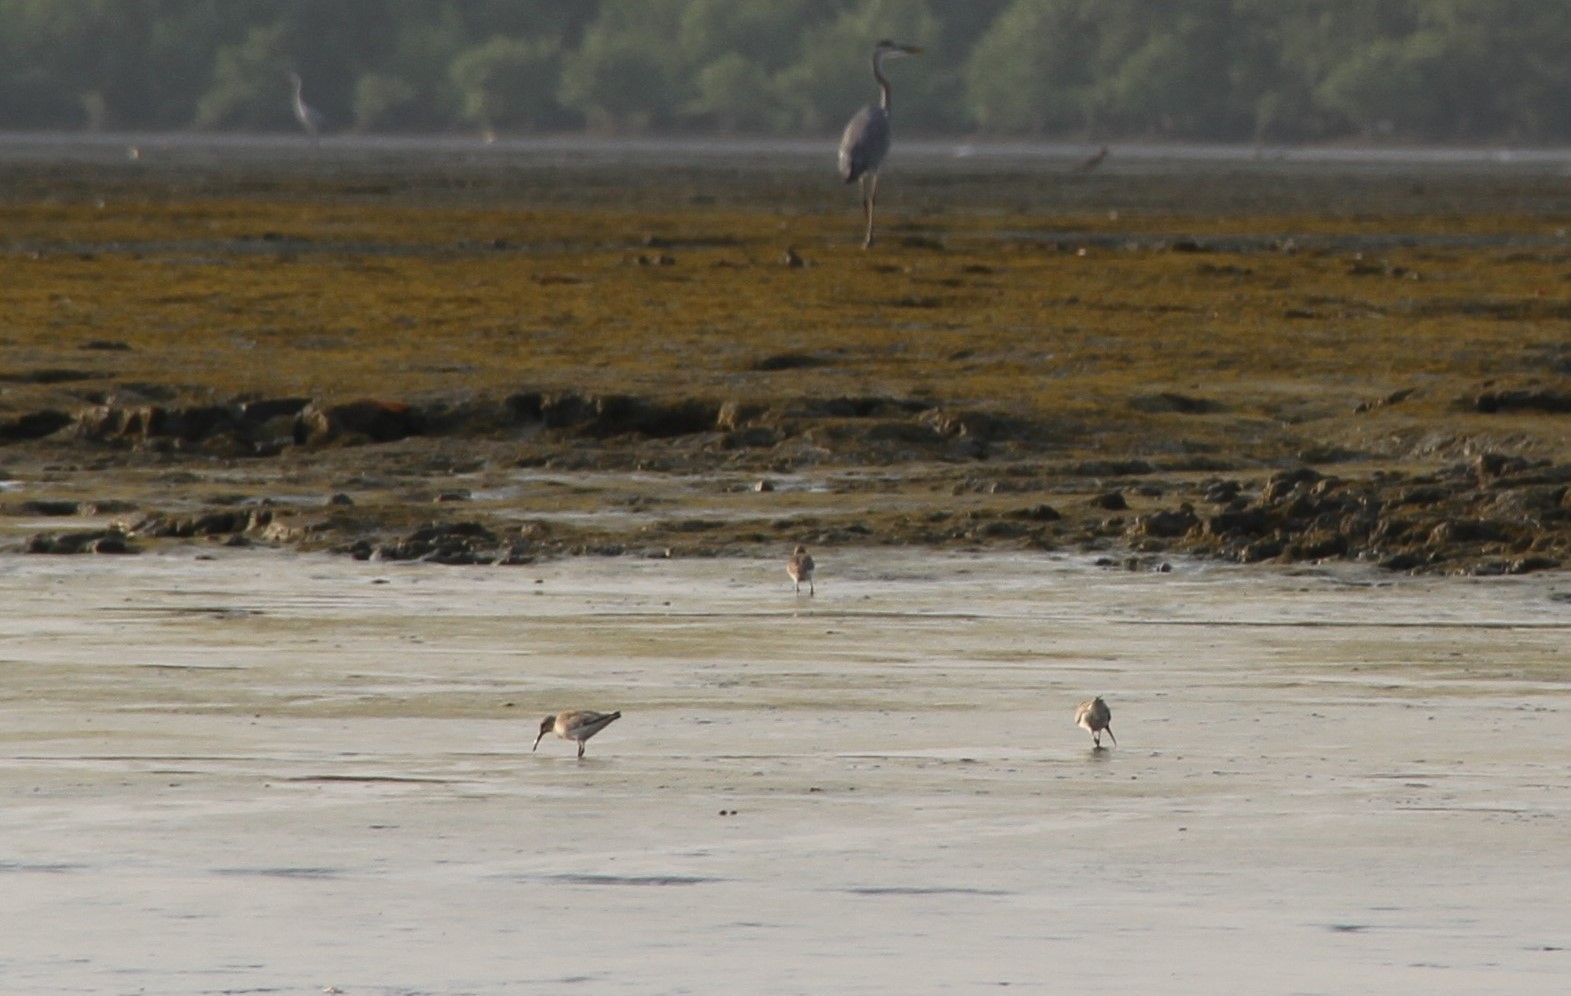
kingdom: Animalia
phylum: Chordata
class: Aves
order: Charadriiformes
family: Scolopacidae
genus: Calidris
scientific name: Calidris ferruginea
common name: Curlew sandpiper
